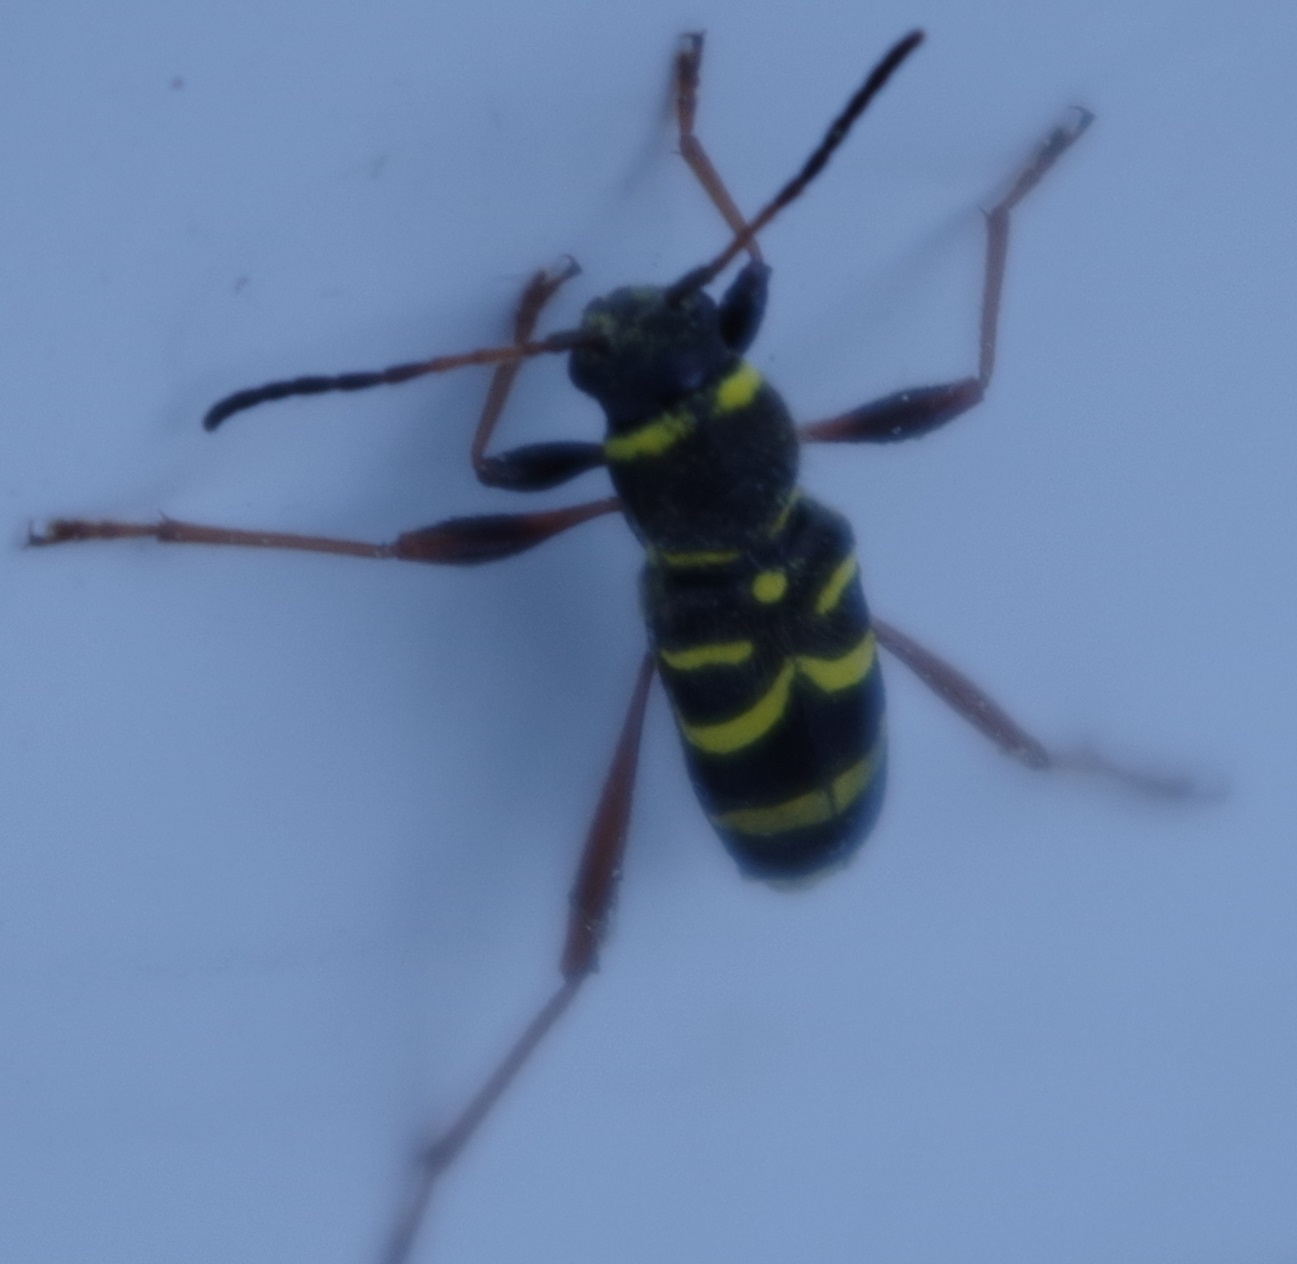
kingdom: Animalia
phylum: Arthropoda
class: Insecta
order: Coleoptera
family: Cerambycidae
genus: Clytus
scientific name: Clytus arietis
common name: Wasp beetle
